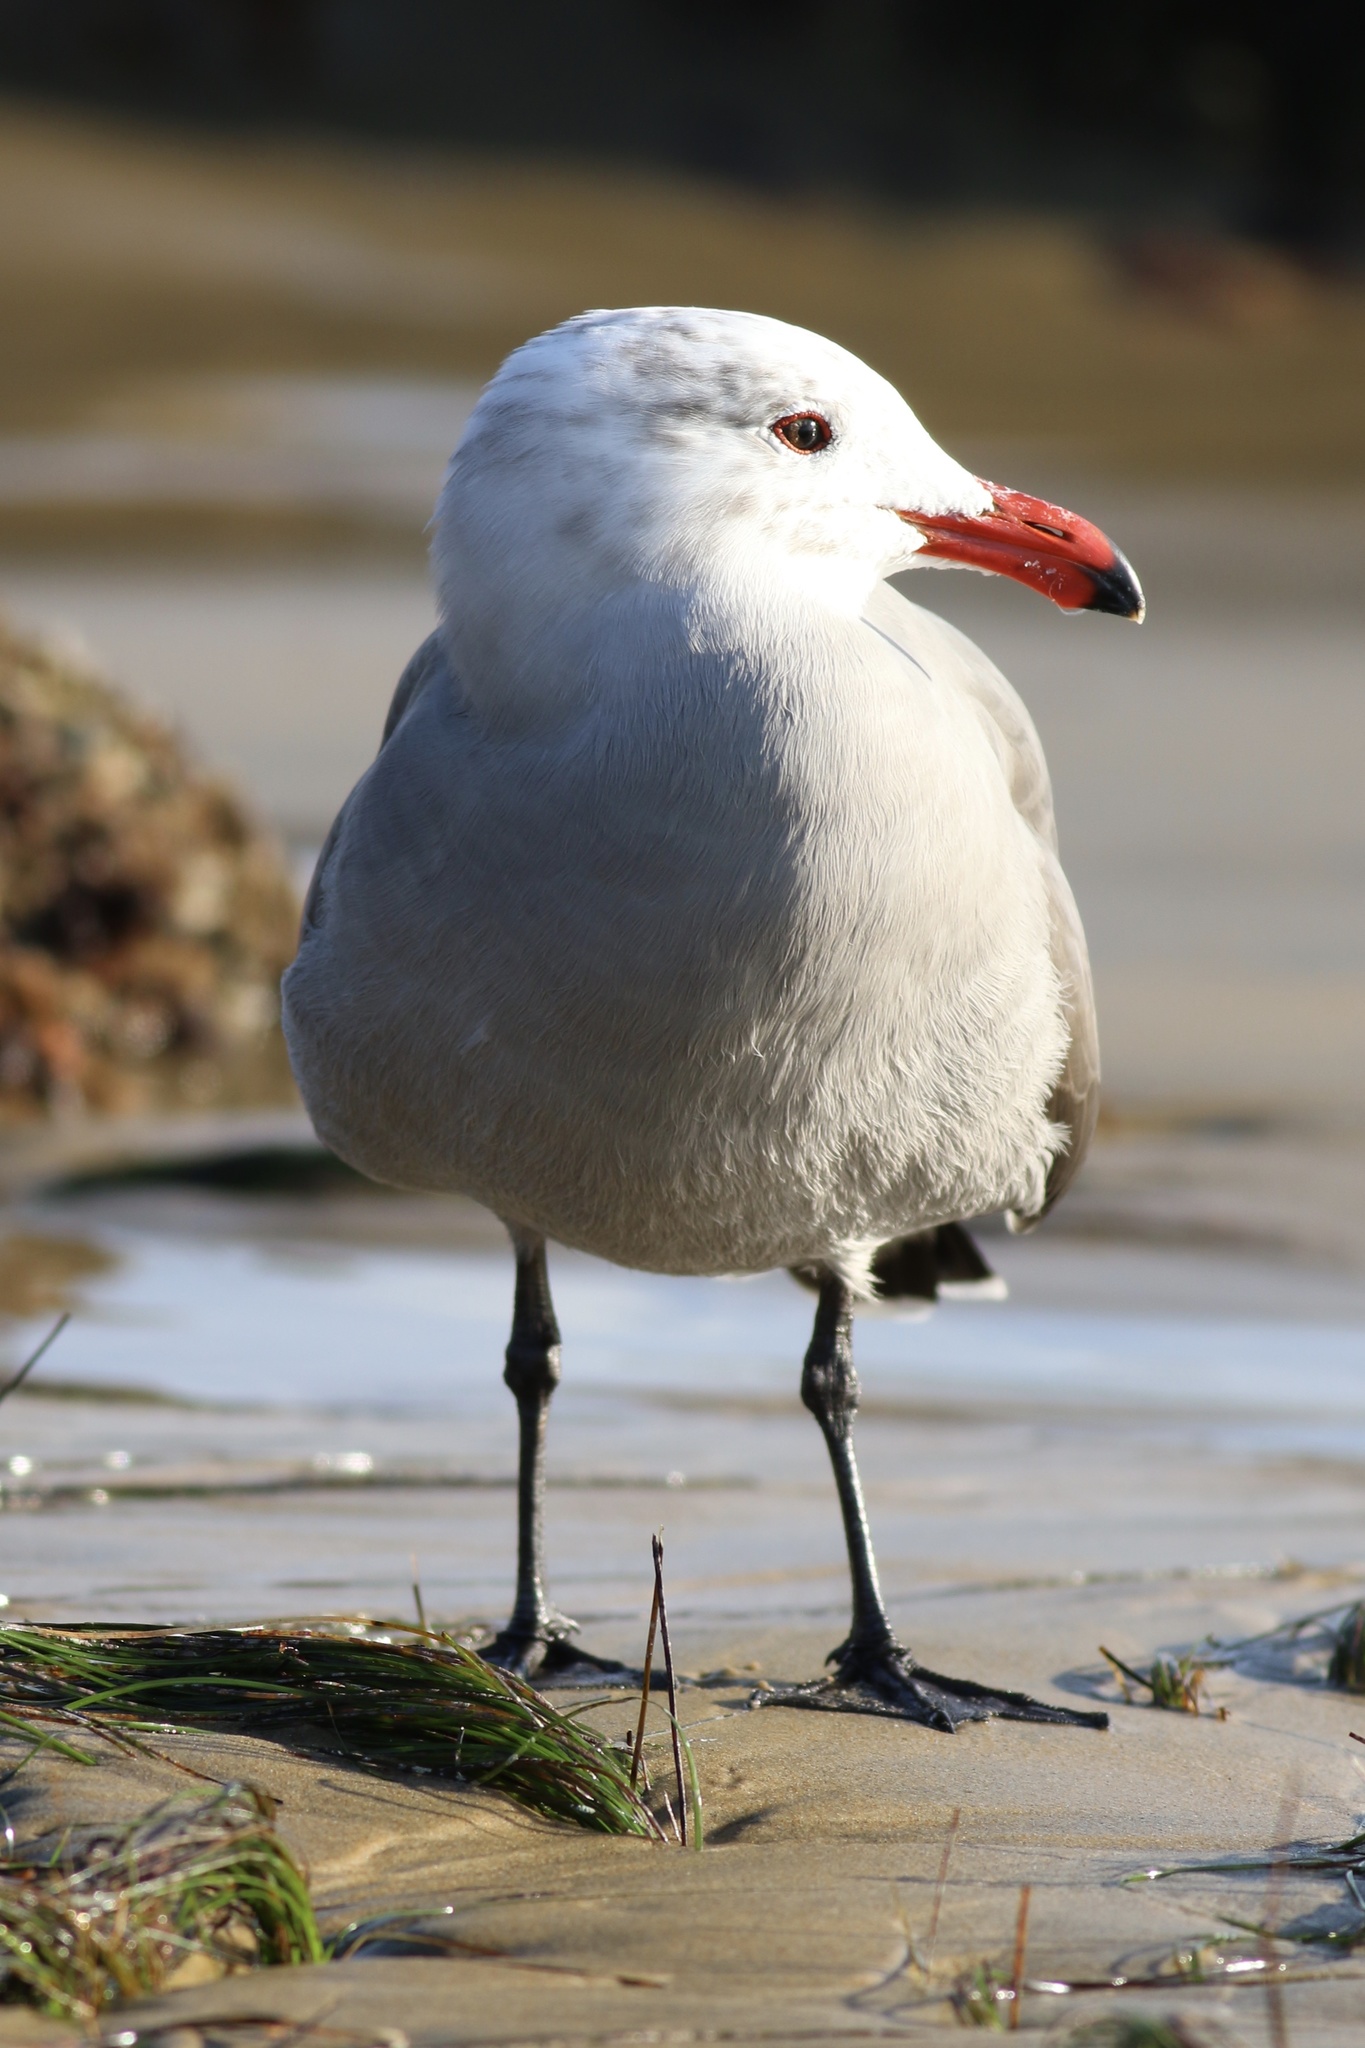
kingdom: Animalia
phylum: Chordata
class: Aves
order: Charadriiformes
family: Laridae
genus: Larus
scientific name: Larus heermanni
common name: Heermann's gull
